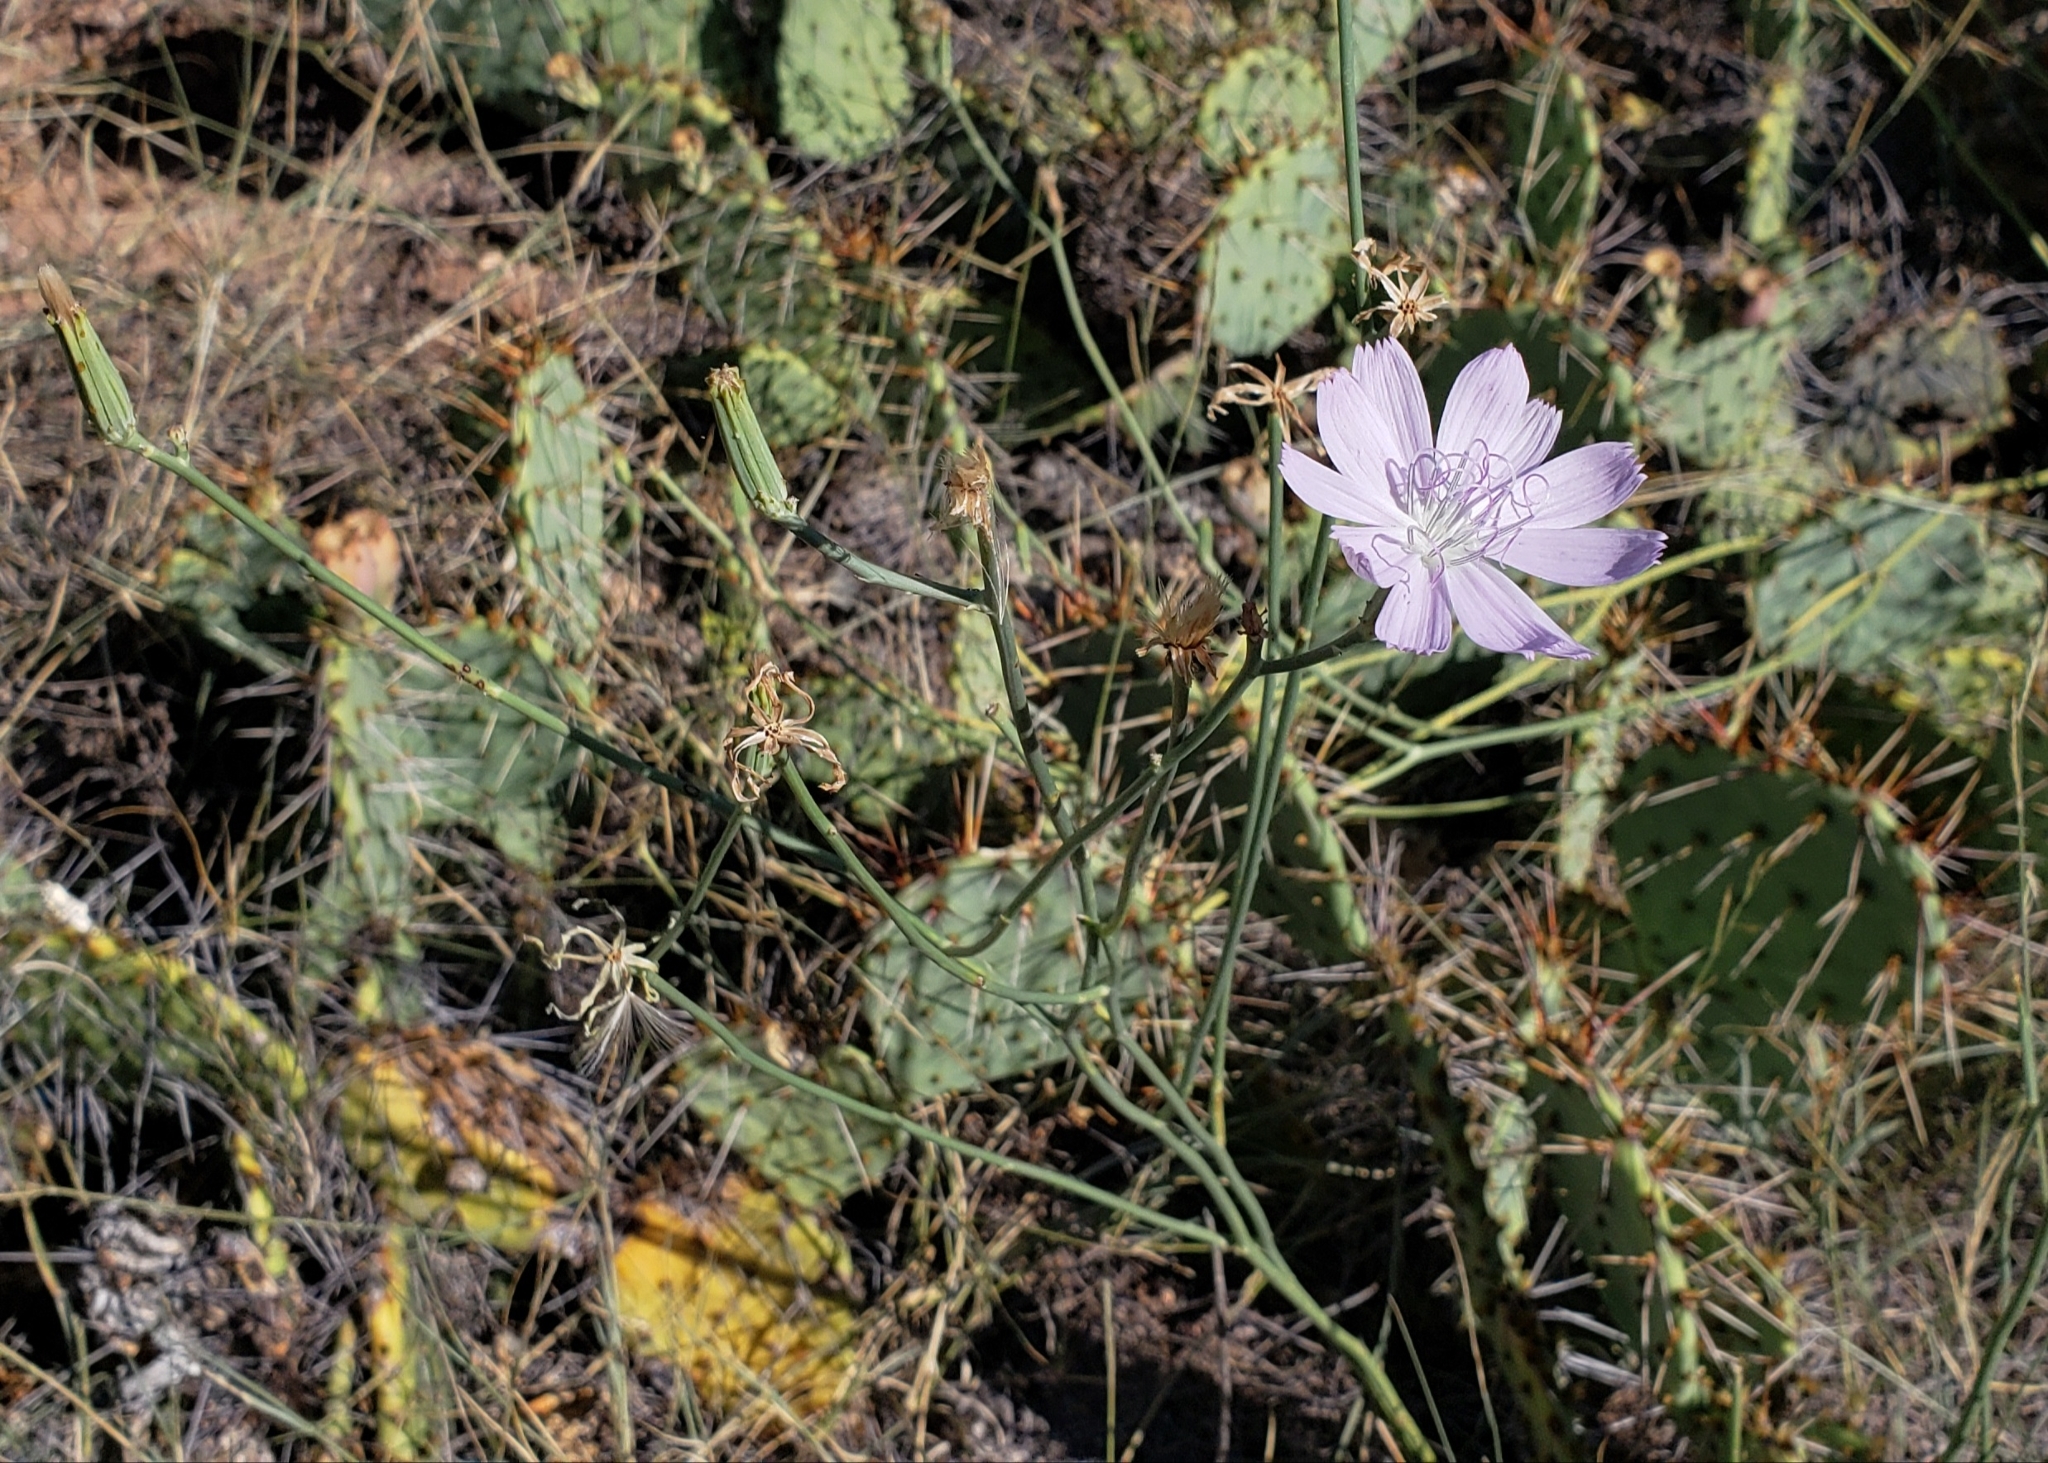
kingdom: Plantae
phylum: Tracheophyta
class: Magnoliopsida
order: Asterales
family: Asteraceae
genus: Lygodesmia
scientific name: Lygodesmia texana
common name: Texas skeleton-plant
